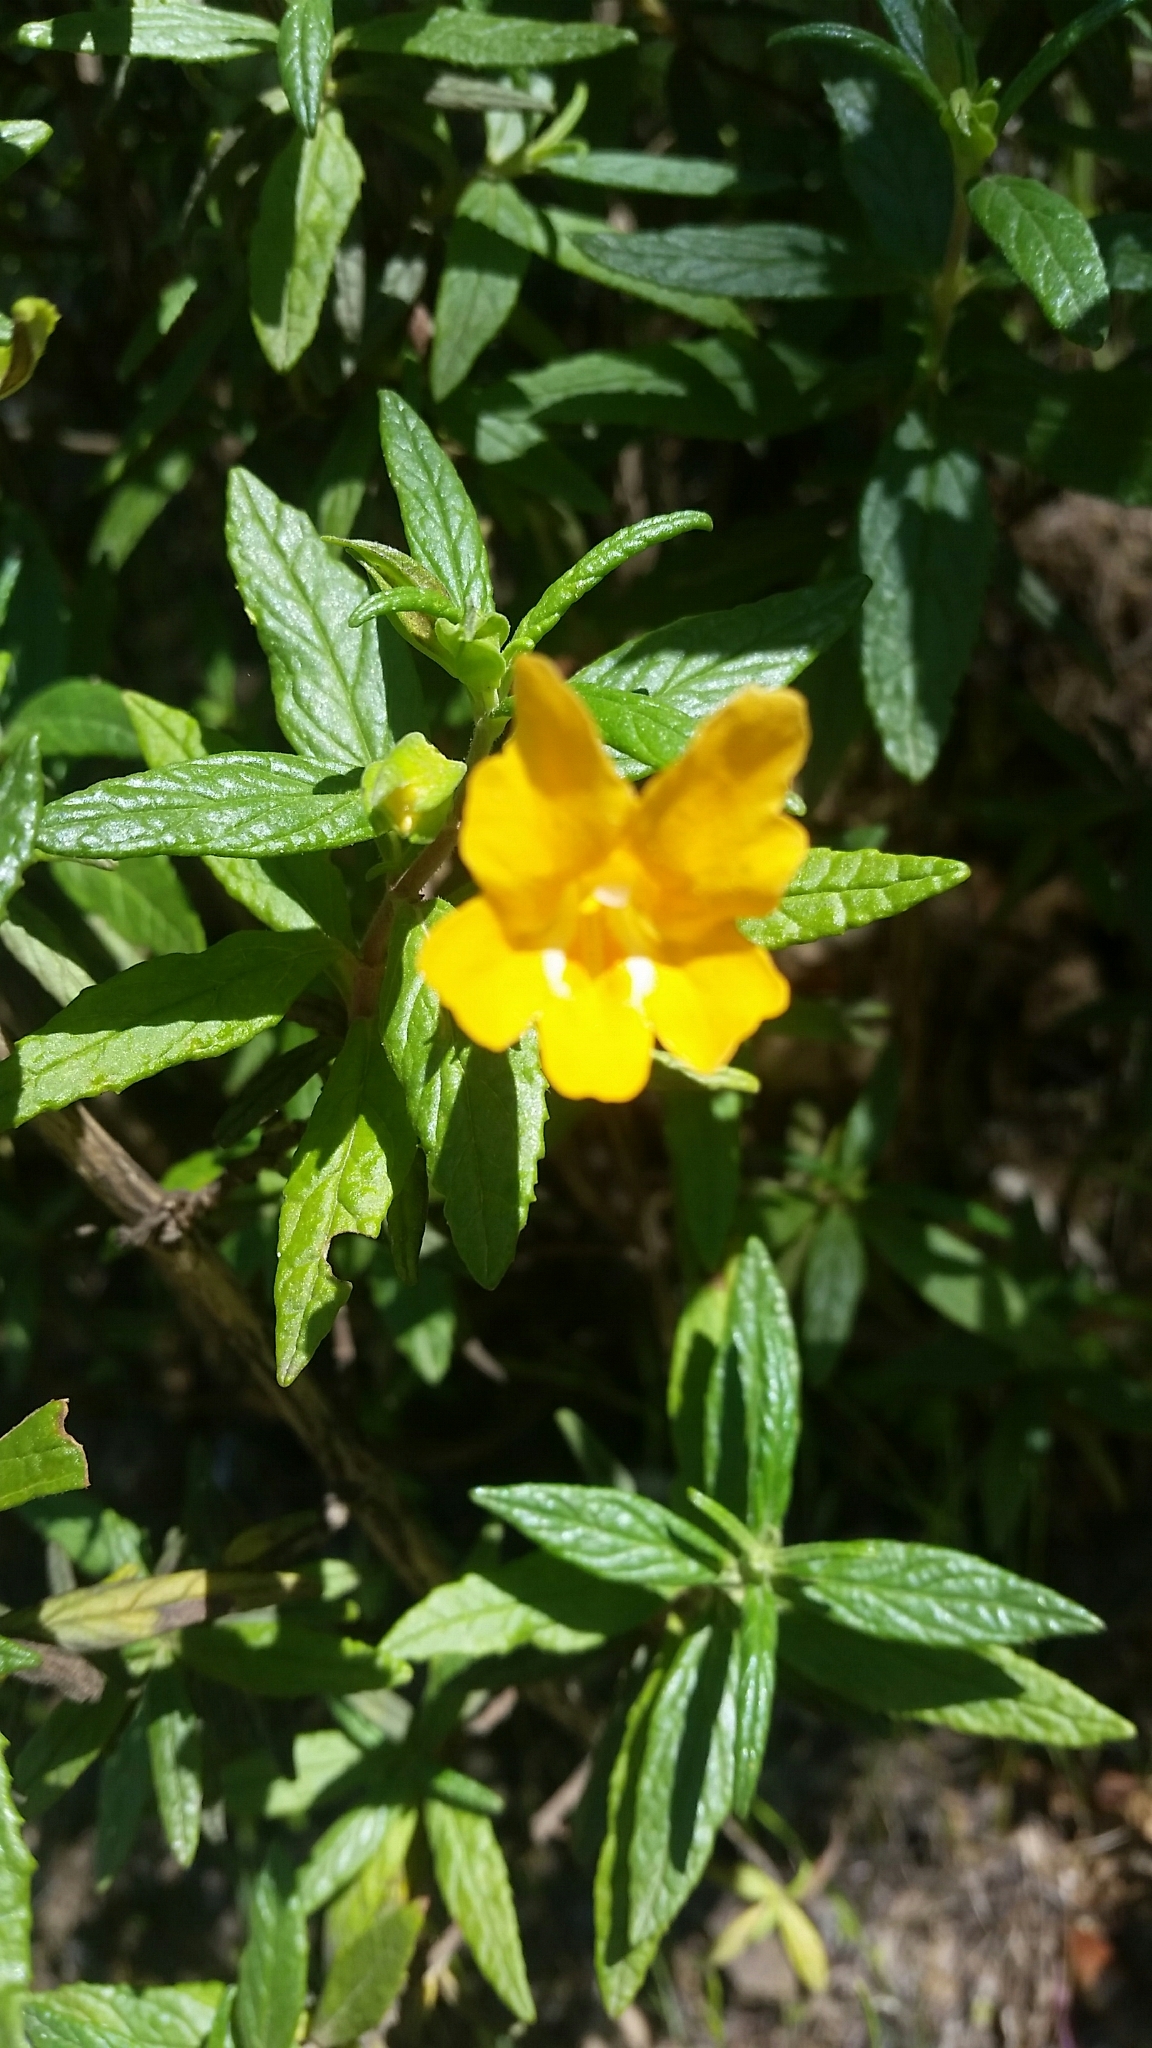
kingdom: Plantae
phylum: Tracheophyta
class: Magnoliopsida
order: Lamiales
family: Phrymaceae
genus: Diplacus
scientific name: Diplacus aurantiacus
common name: Bush monkey-flower
